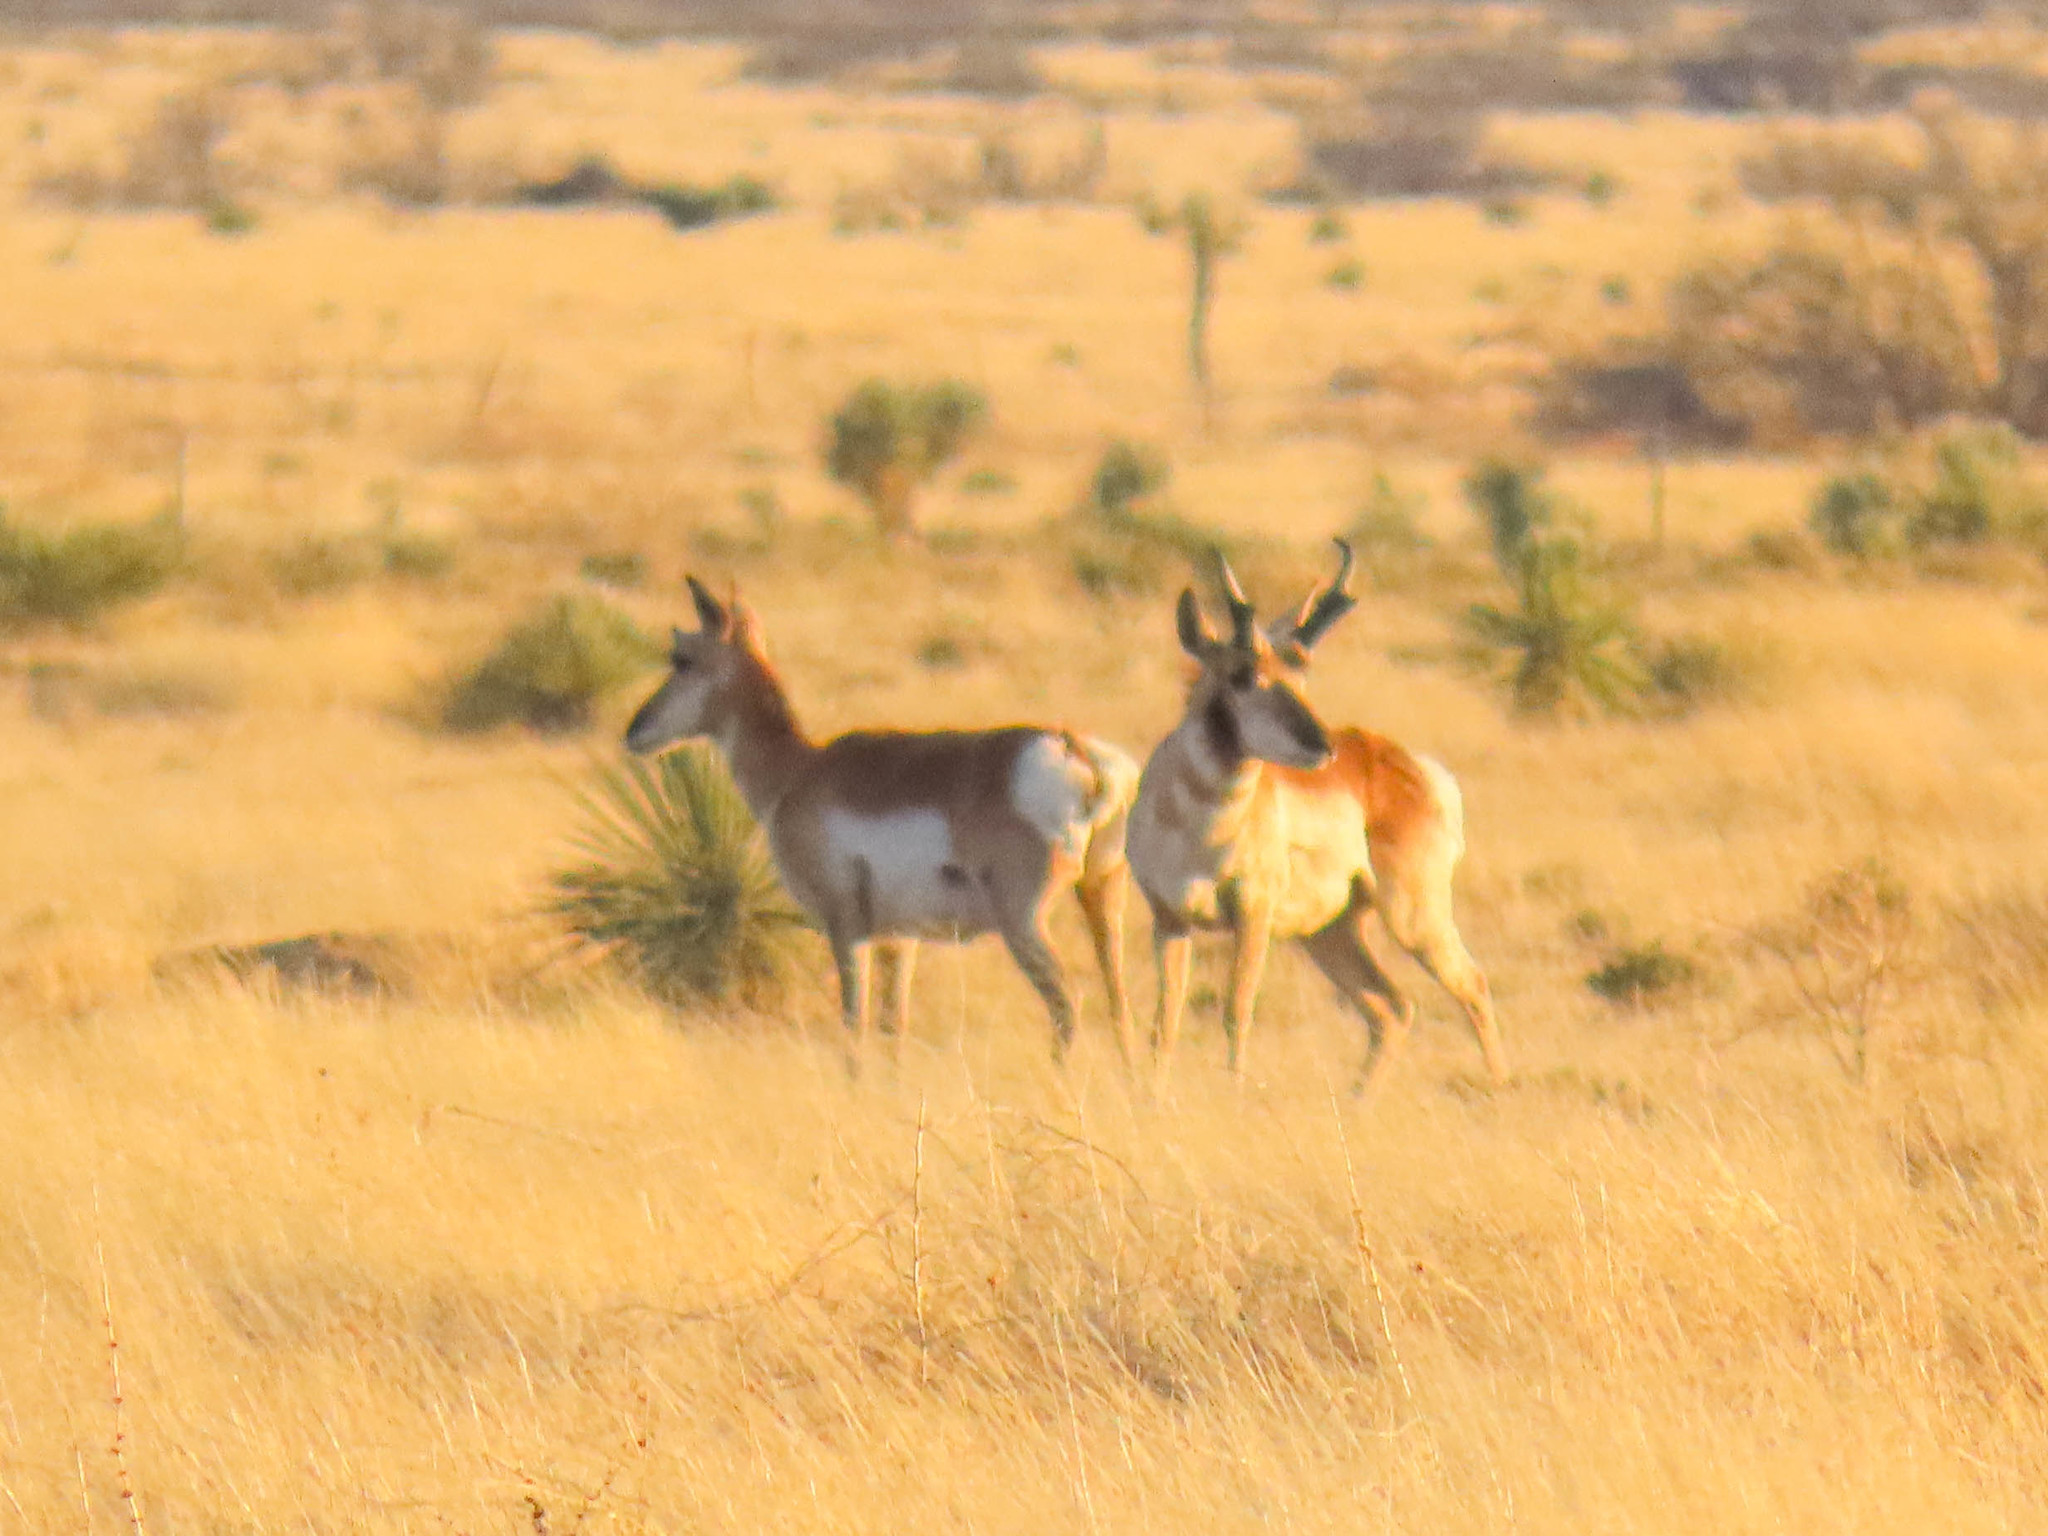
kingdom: Animalia
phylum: Chordata
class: Mammalia
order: Artiodactyla
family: Antilocapridae
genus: Antilocapra
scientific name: Antilocapra americana
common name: Pronghorn
